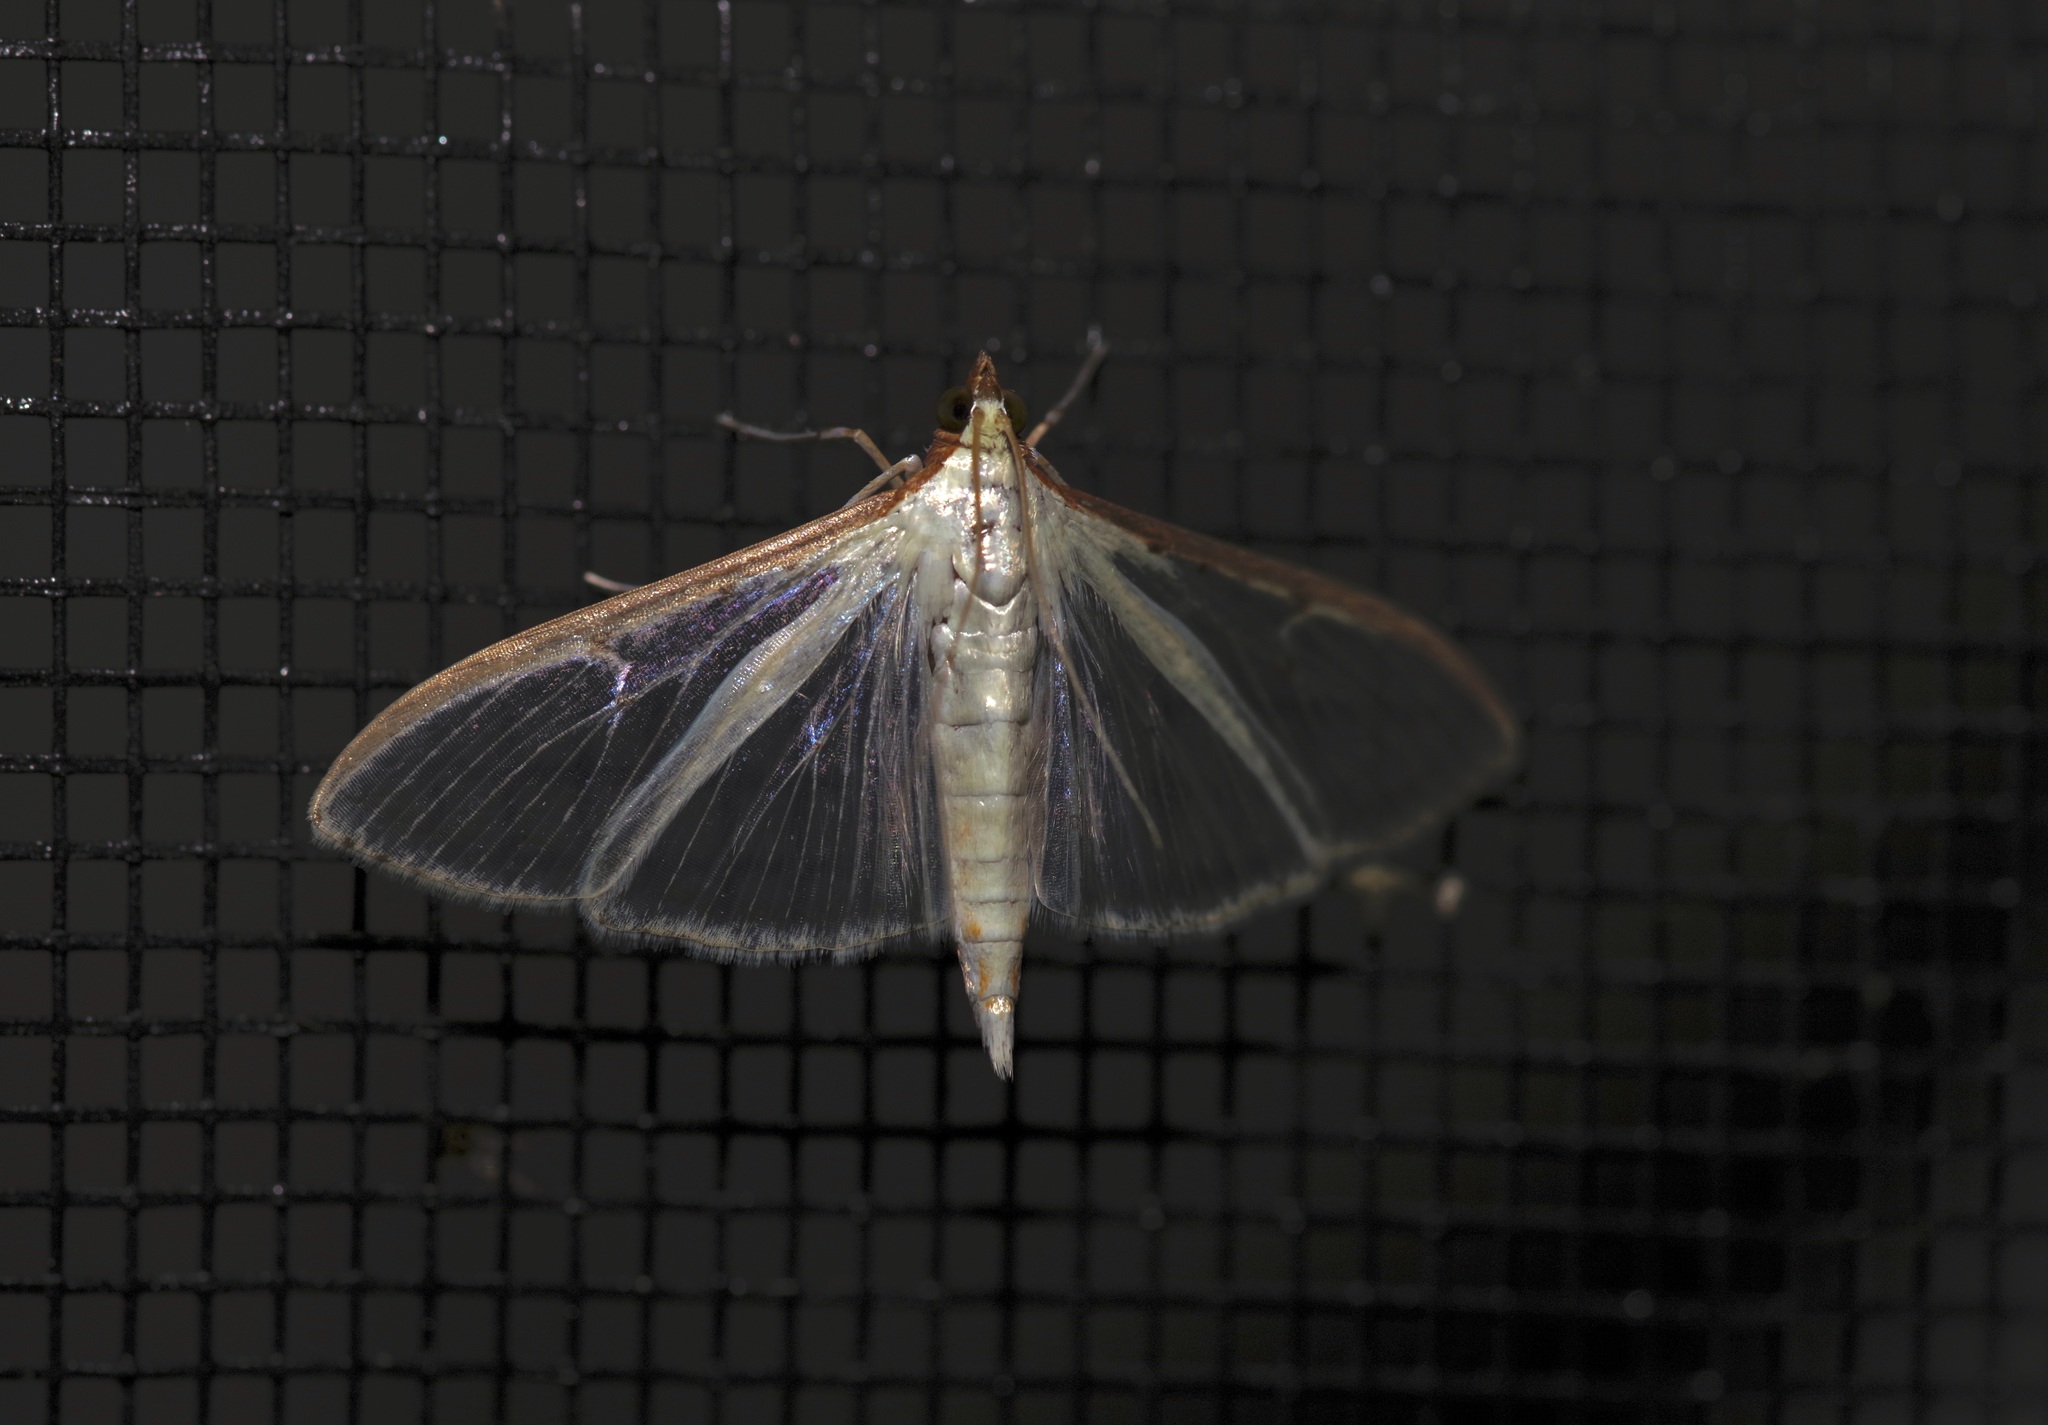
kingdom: Animalia
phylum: Arthropoda
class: Insecta
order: Lepidoptera
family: Crambidae
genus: Palpita
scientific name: Palpita quadristigmalis
